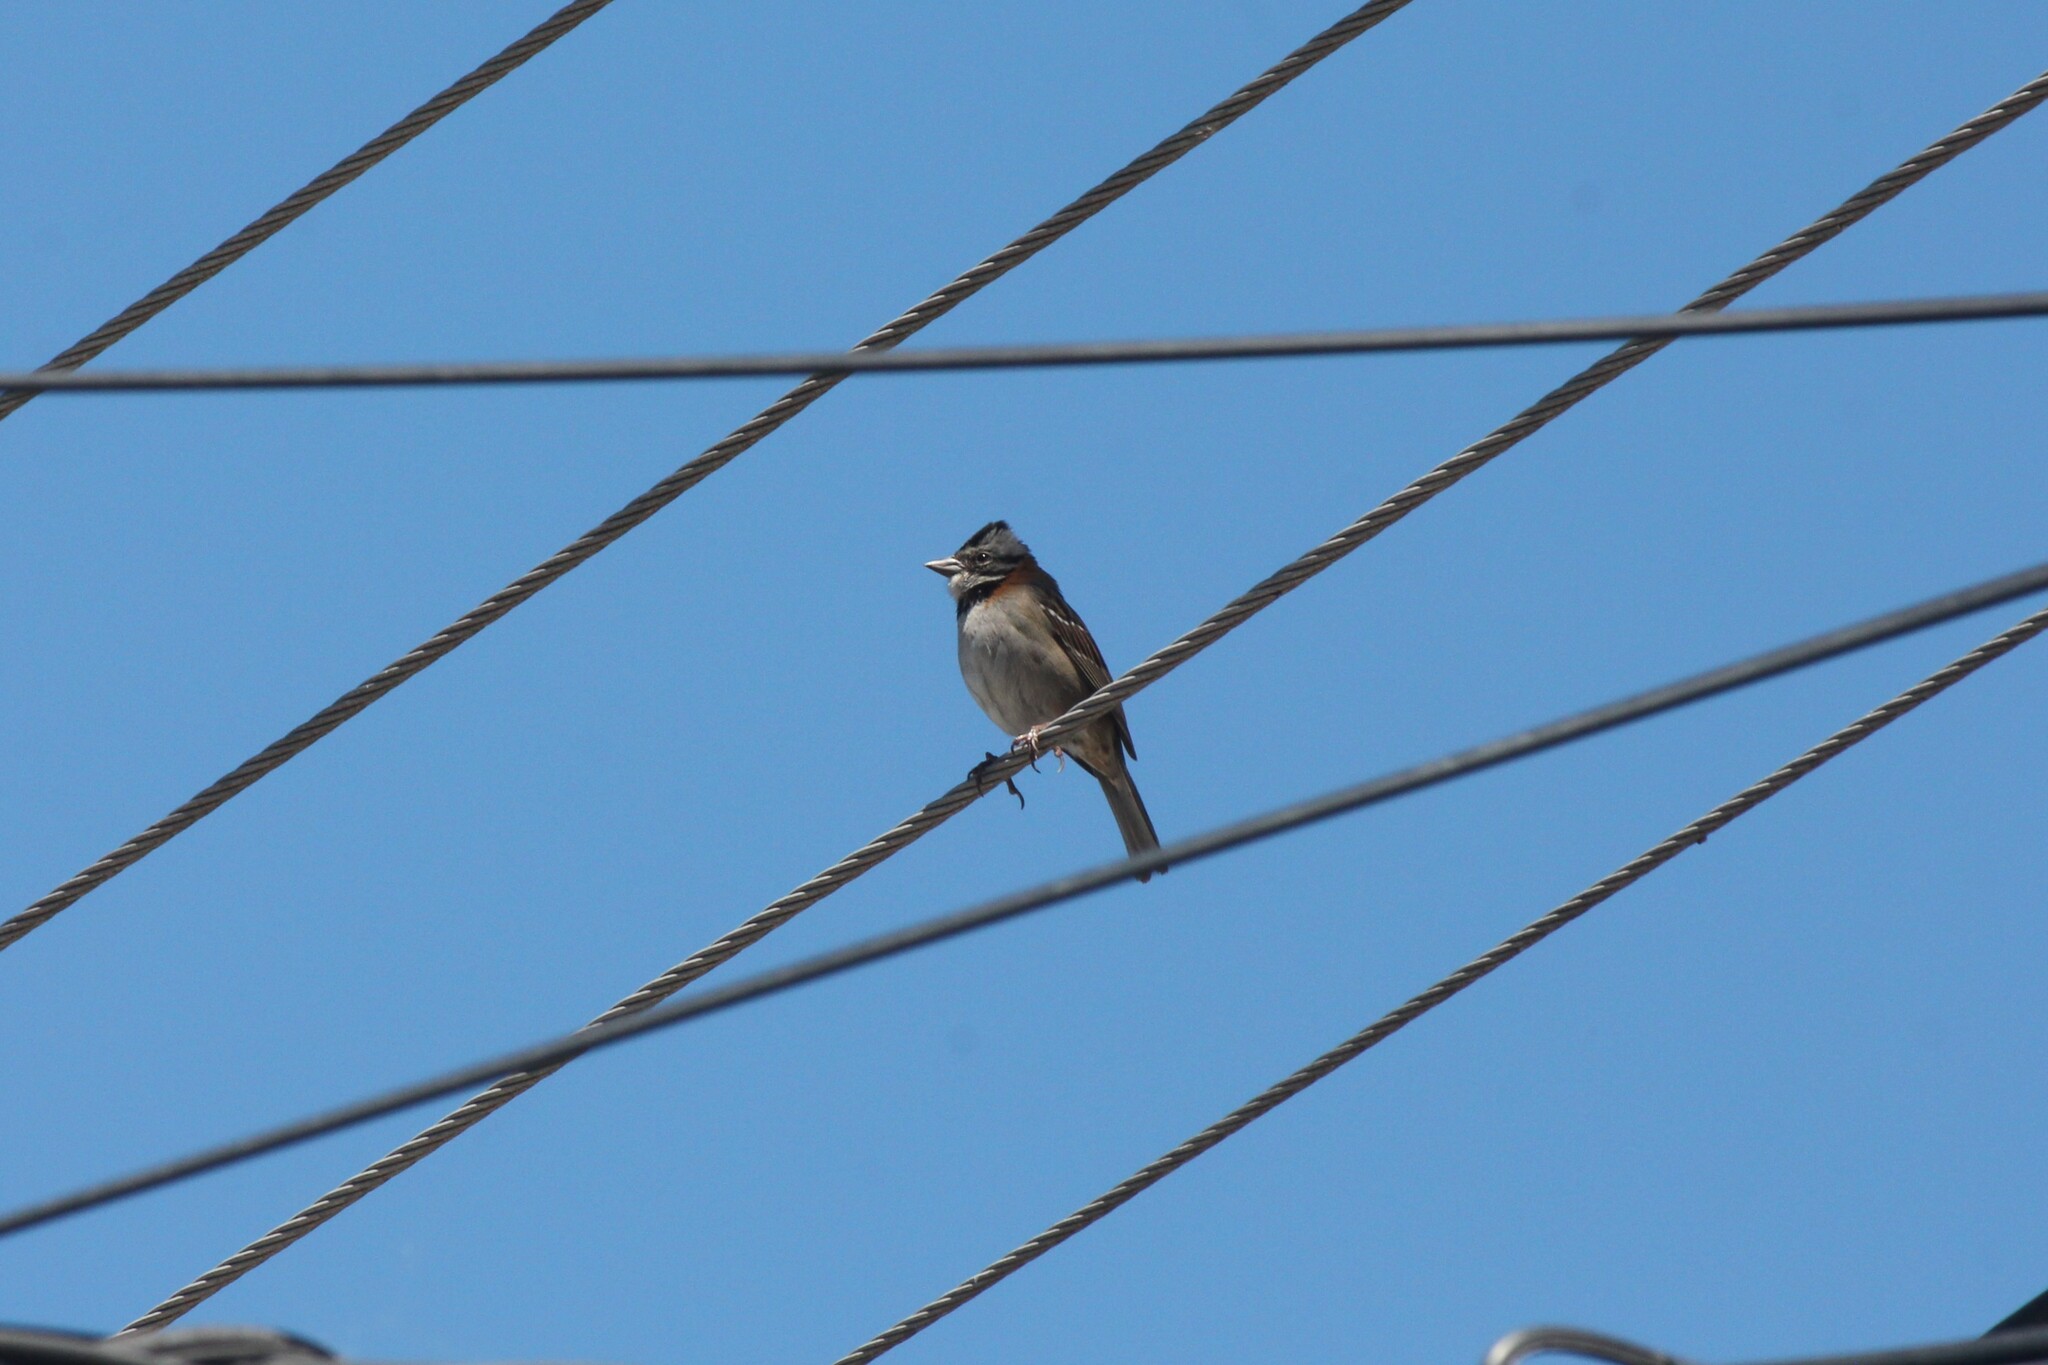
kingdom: Animalia
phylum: Chordata
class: Aves
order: Passeriformes
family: Passerellidae
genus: Zonotrichia
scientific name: Zonotrichia capensis
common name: Rufous-collared sparrow
